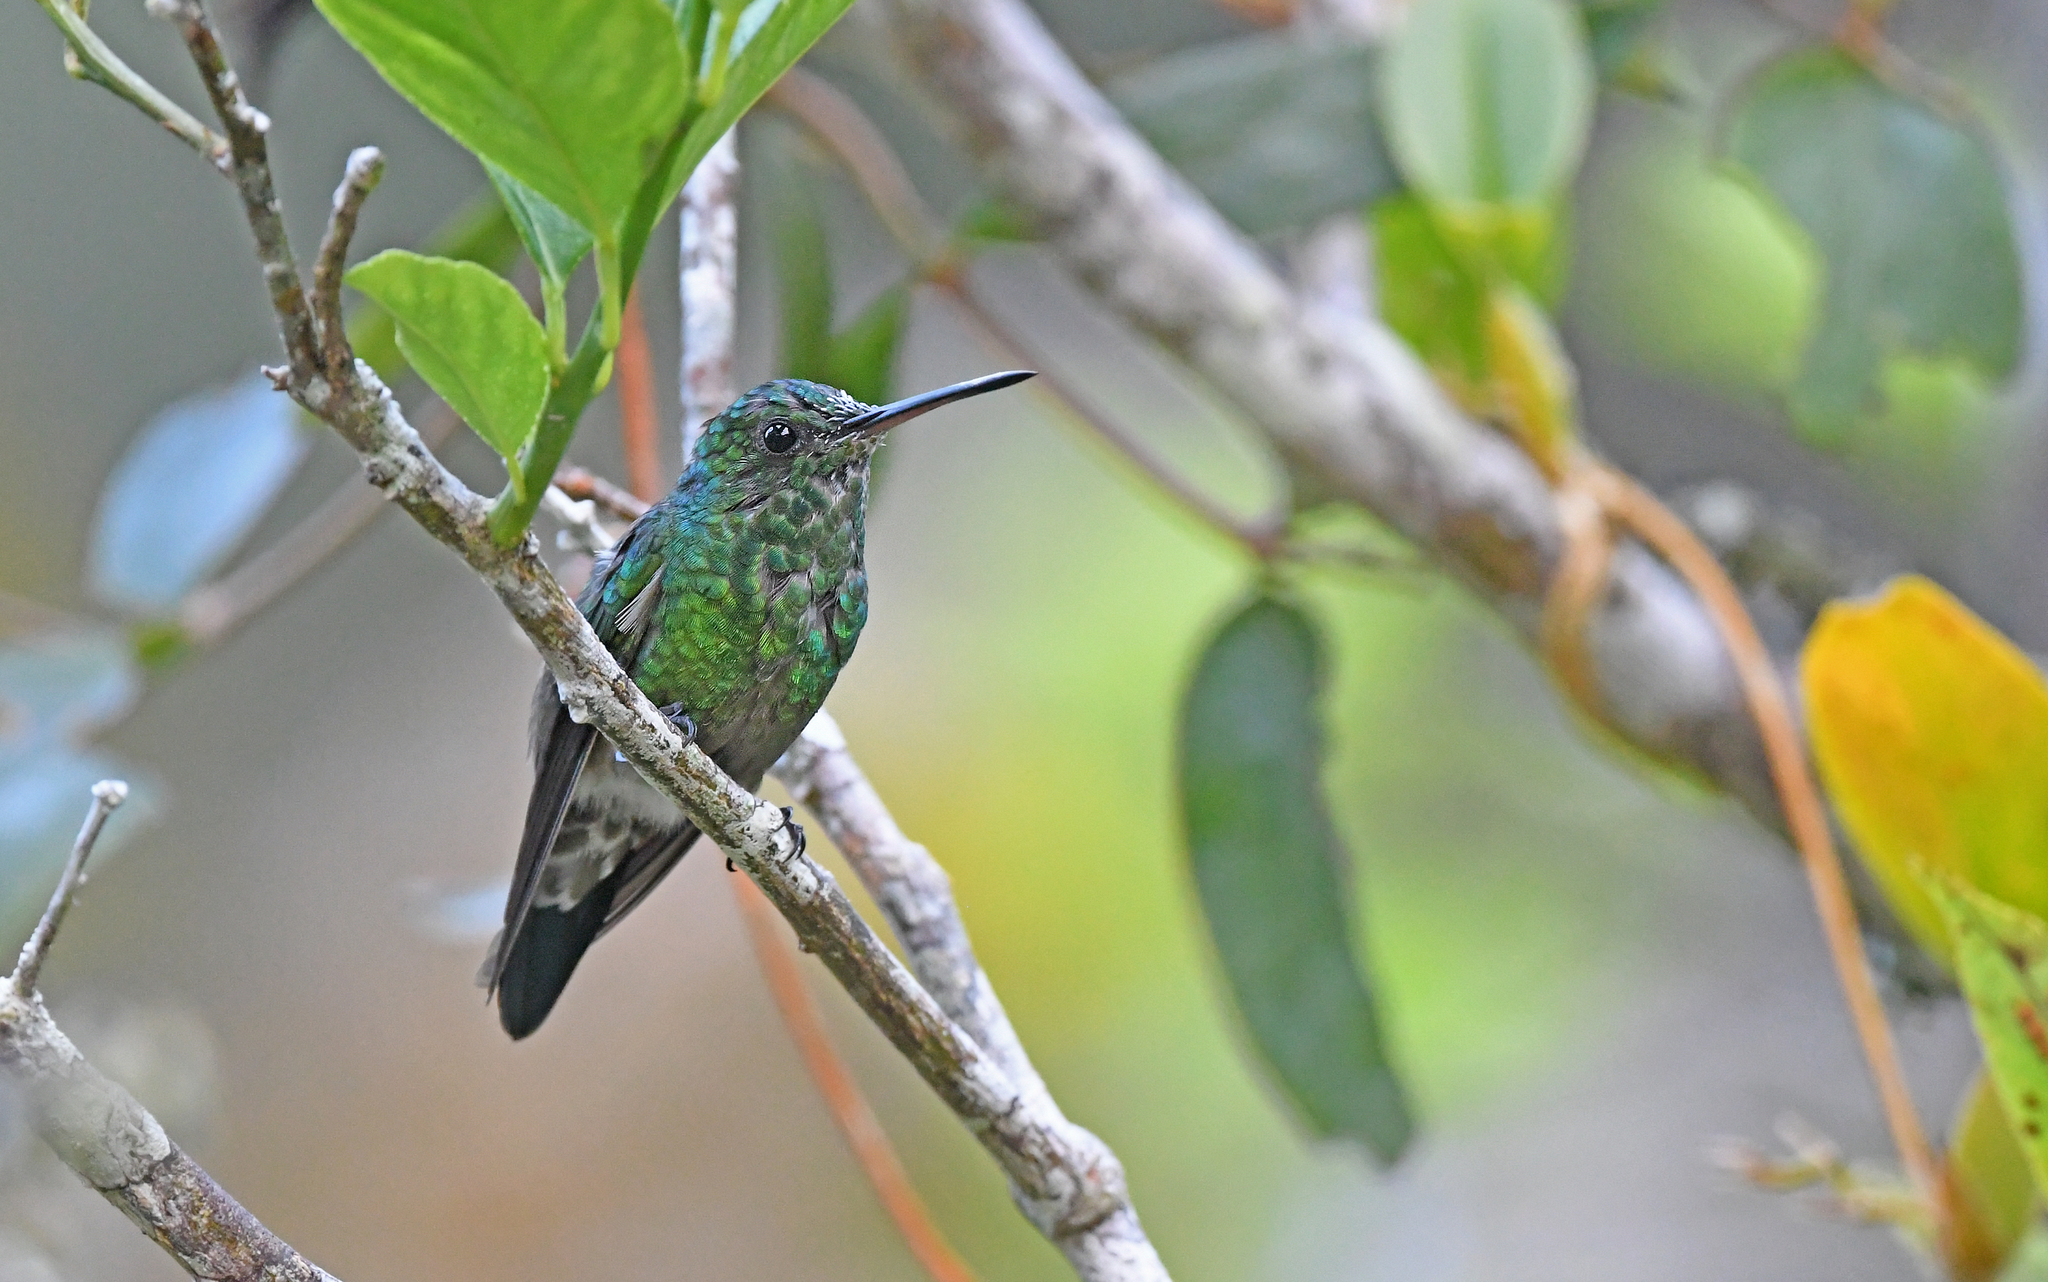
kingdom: Animalia
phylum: Chordata
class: Aves
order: Apodiformes
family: Trochilidae
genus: Saucerottia
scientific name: Saucerottia saucerottei
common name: Steely-vented hummingbird
